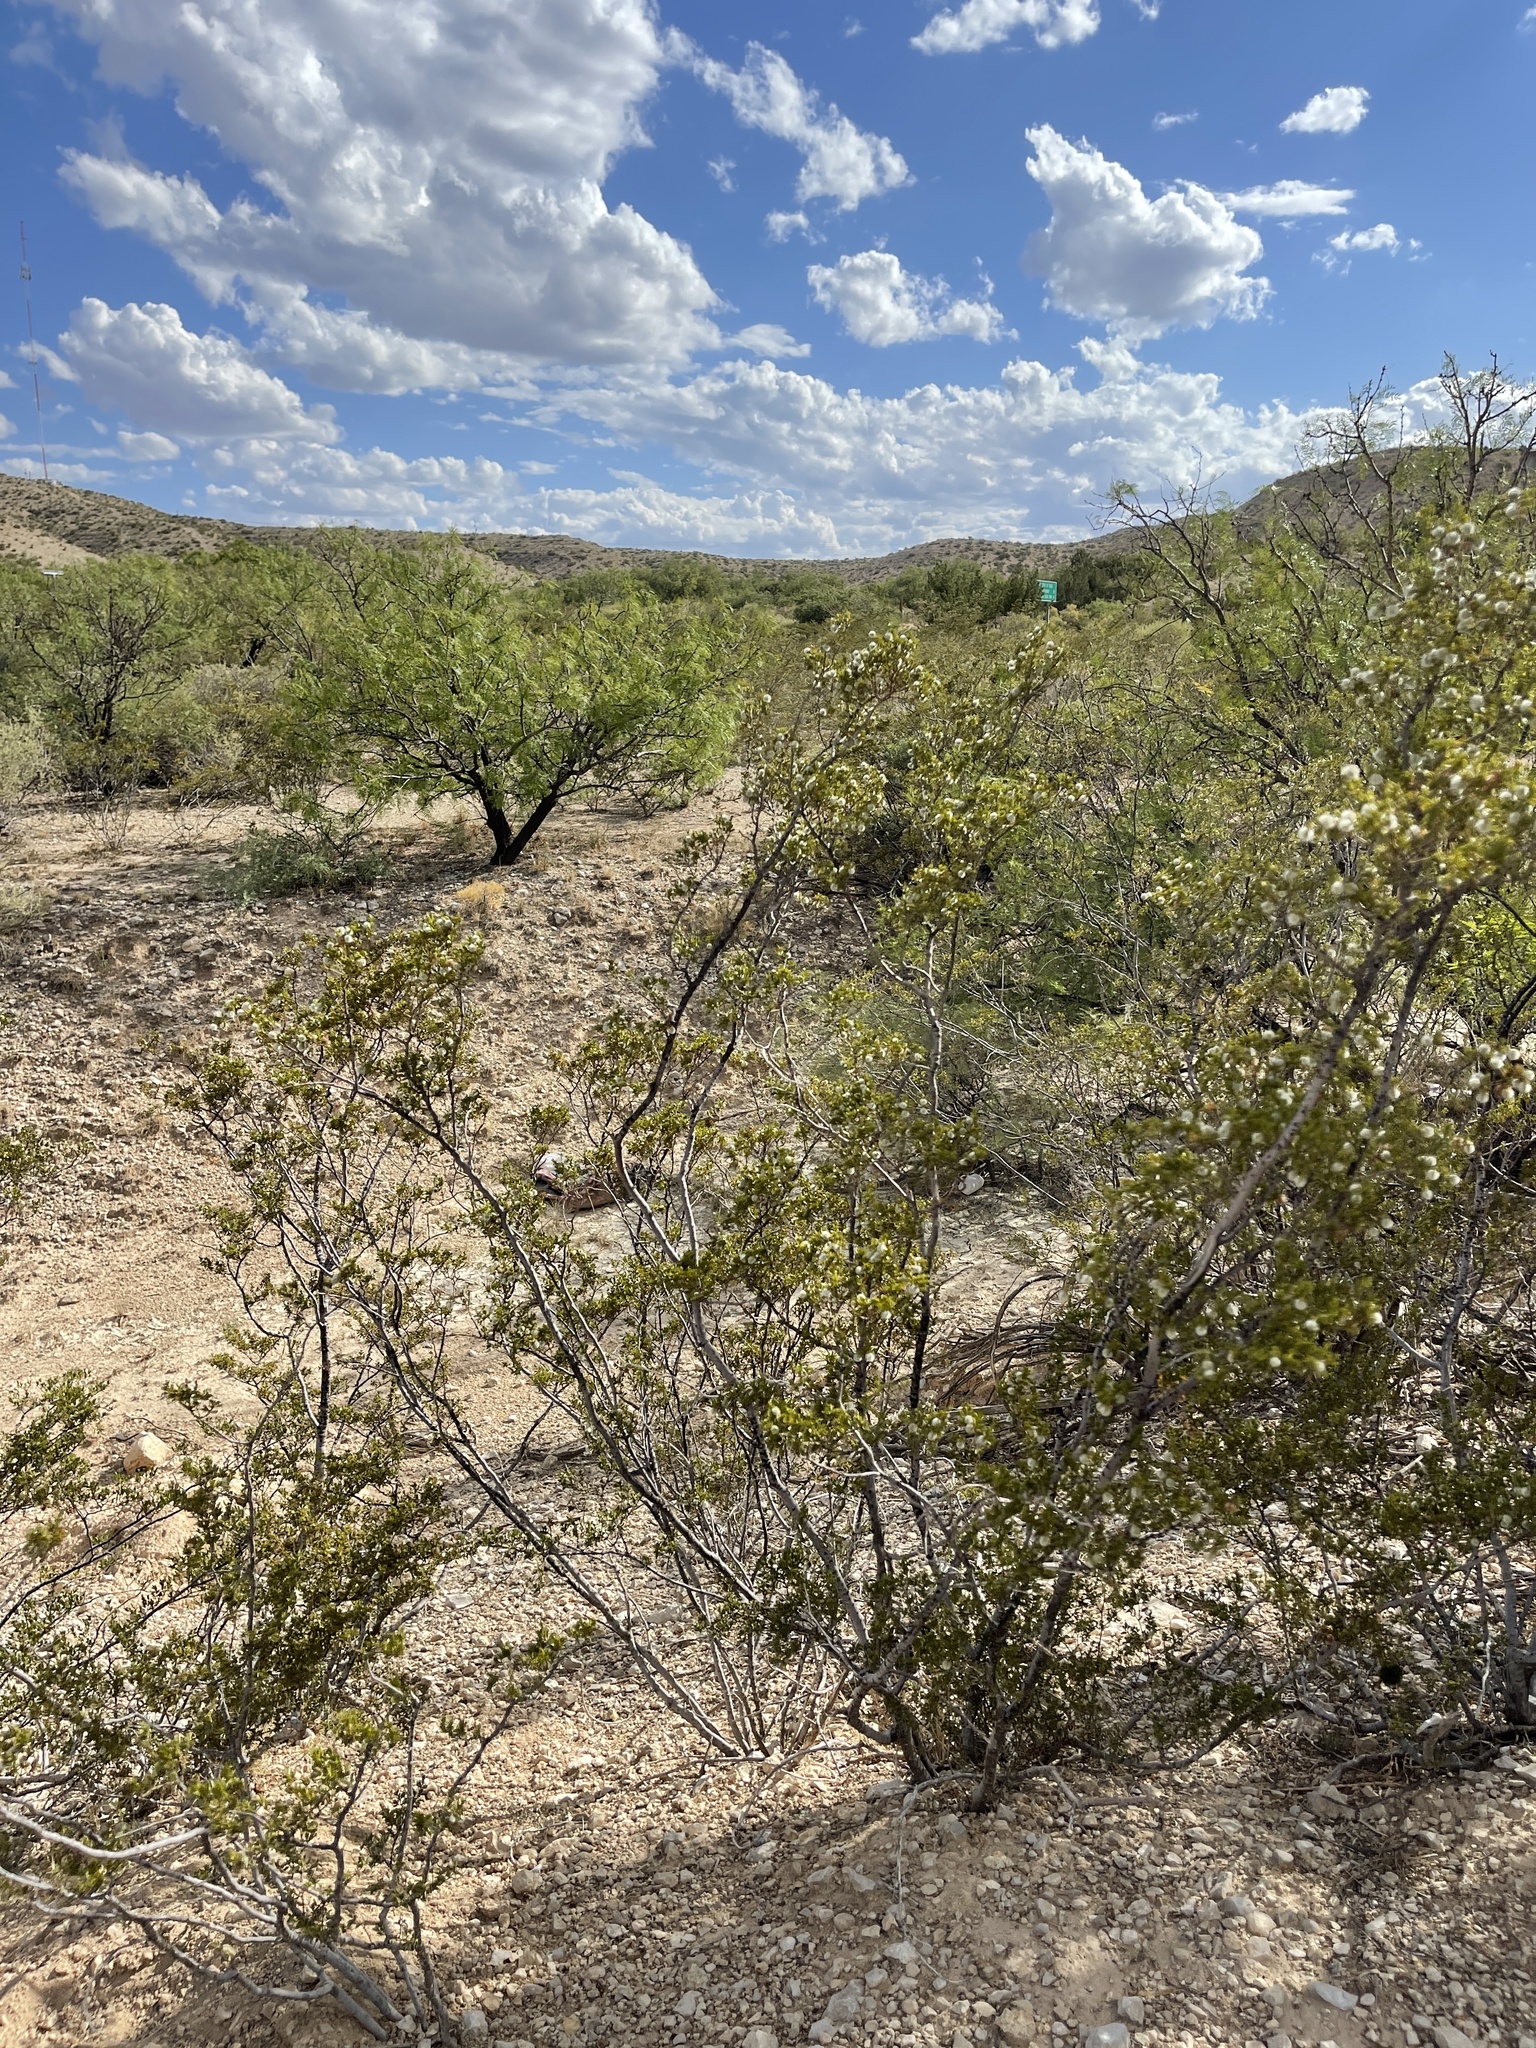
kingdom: Plantae
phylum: Tracheophyta
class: Magnoliopsida
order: Zygophyllales
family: Zygophyllaceae
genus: Larrea
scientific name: Larrea tridentata
